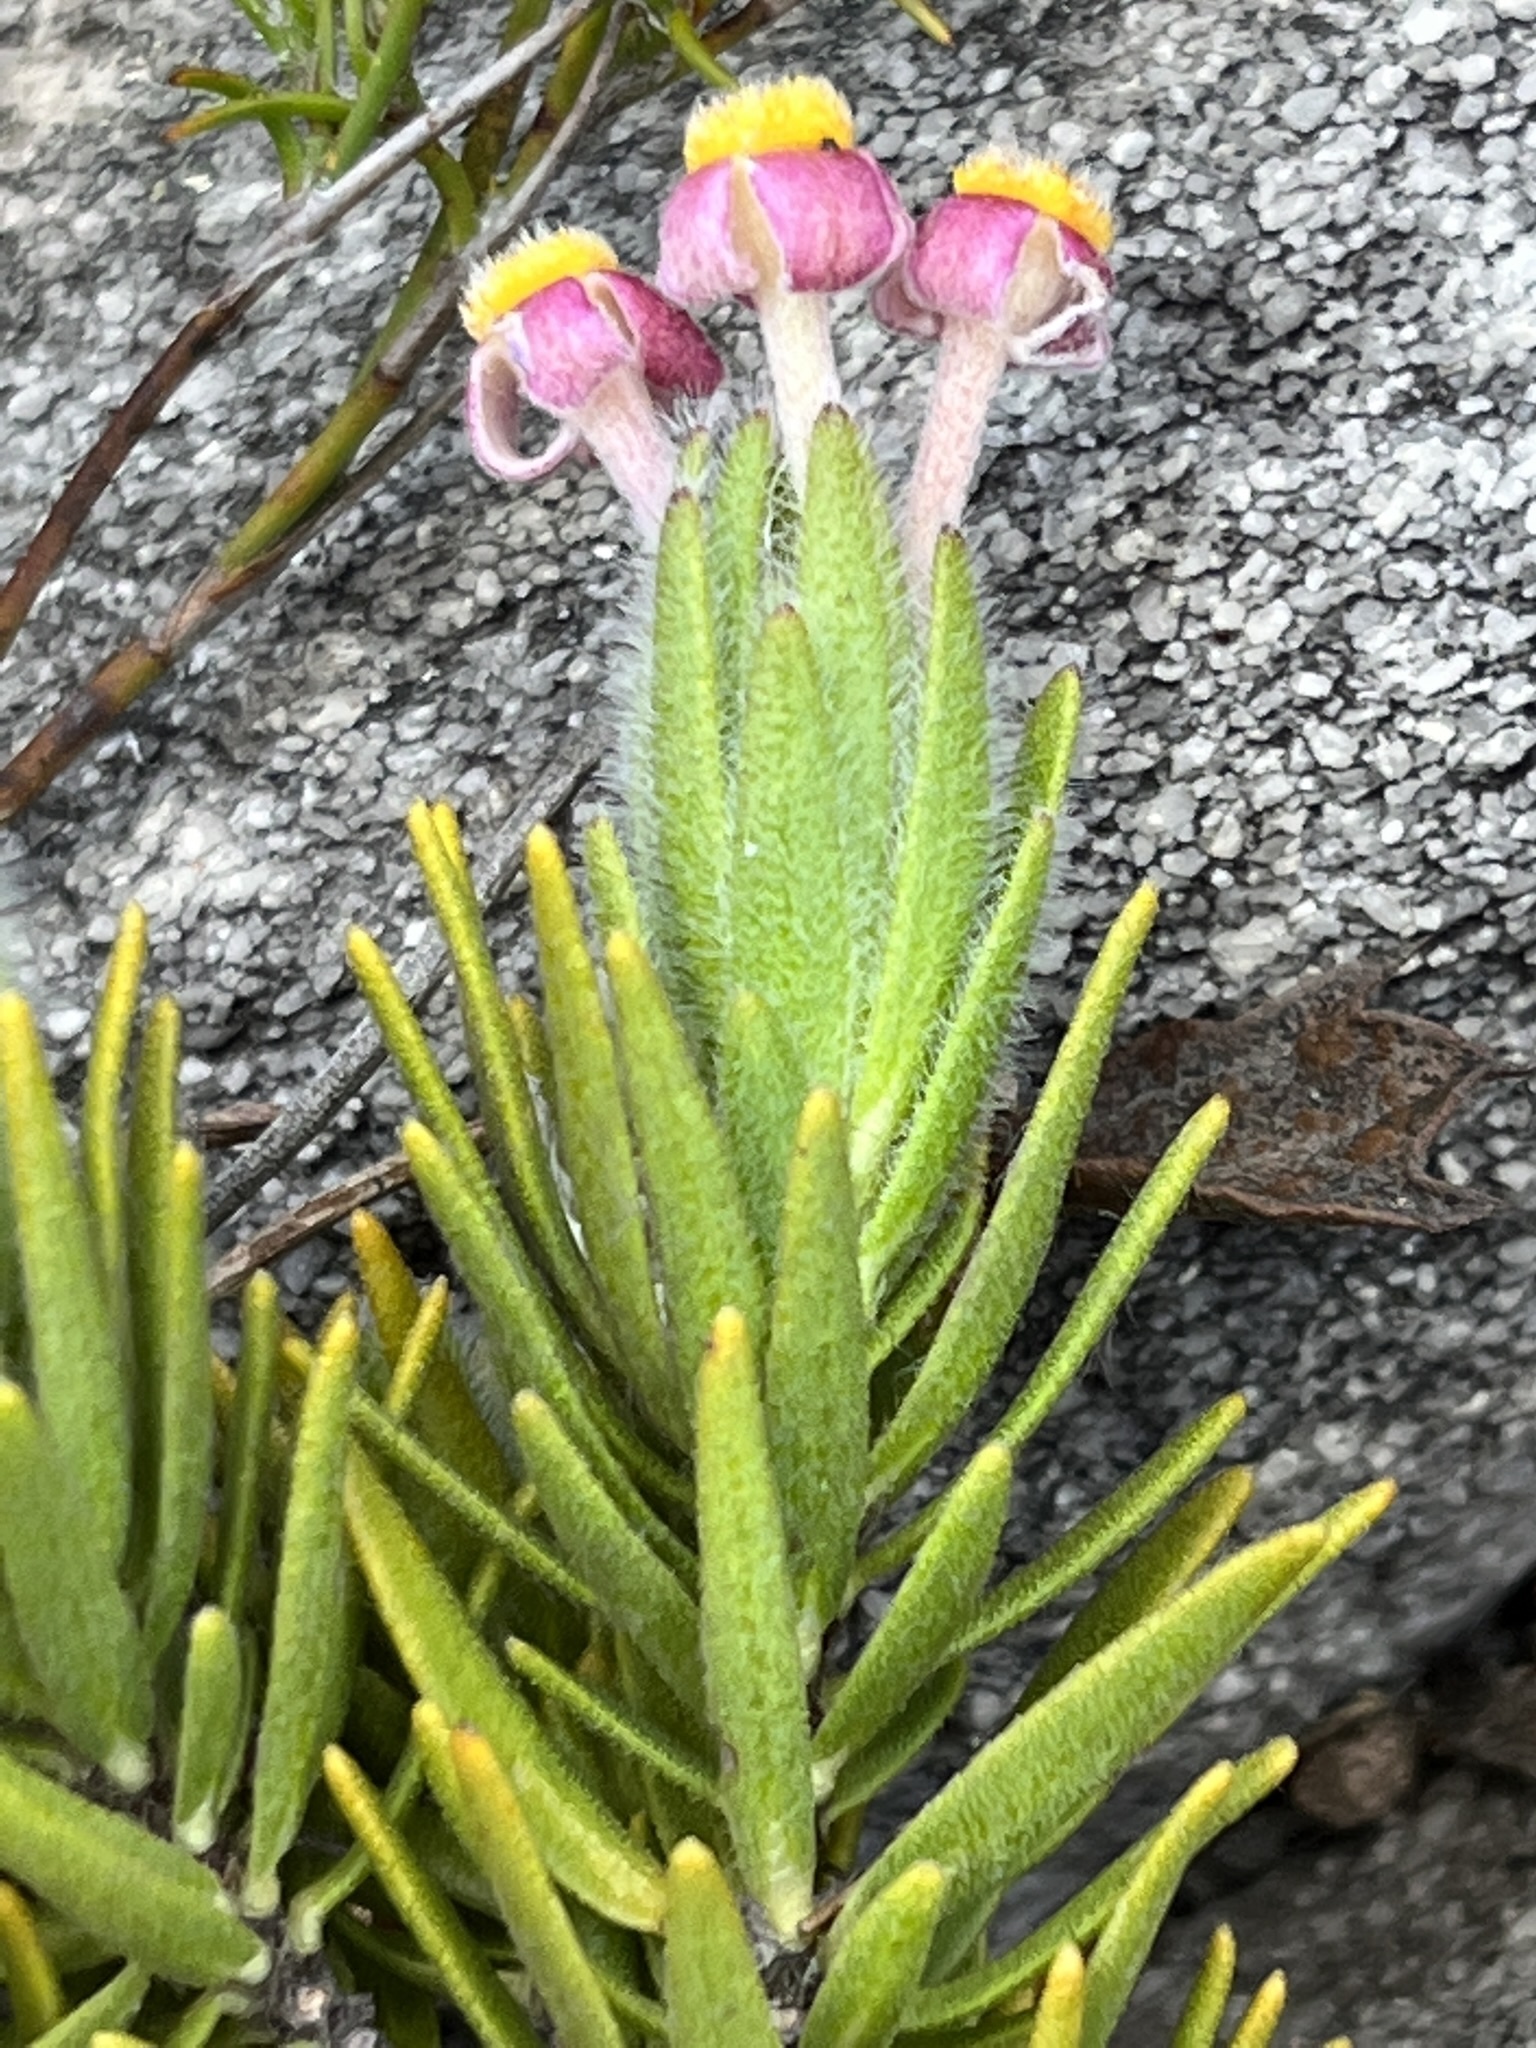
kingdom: Plantae
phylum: Tracheophyta
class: Magnoliopsida
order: Malvales
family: Thymelaeaceae
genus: Gnidia
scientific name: Gnidia nana
